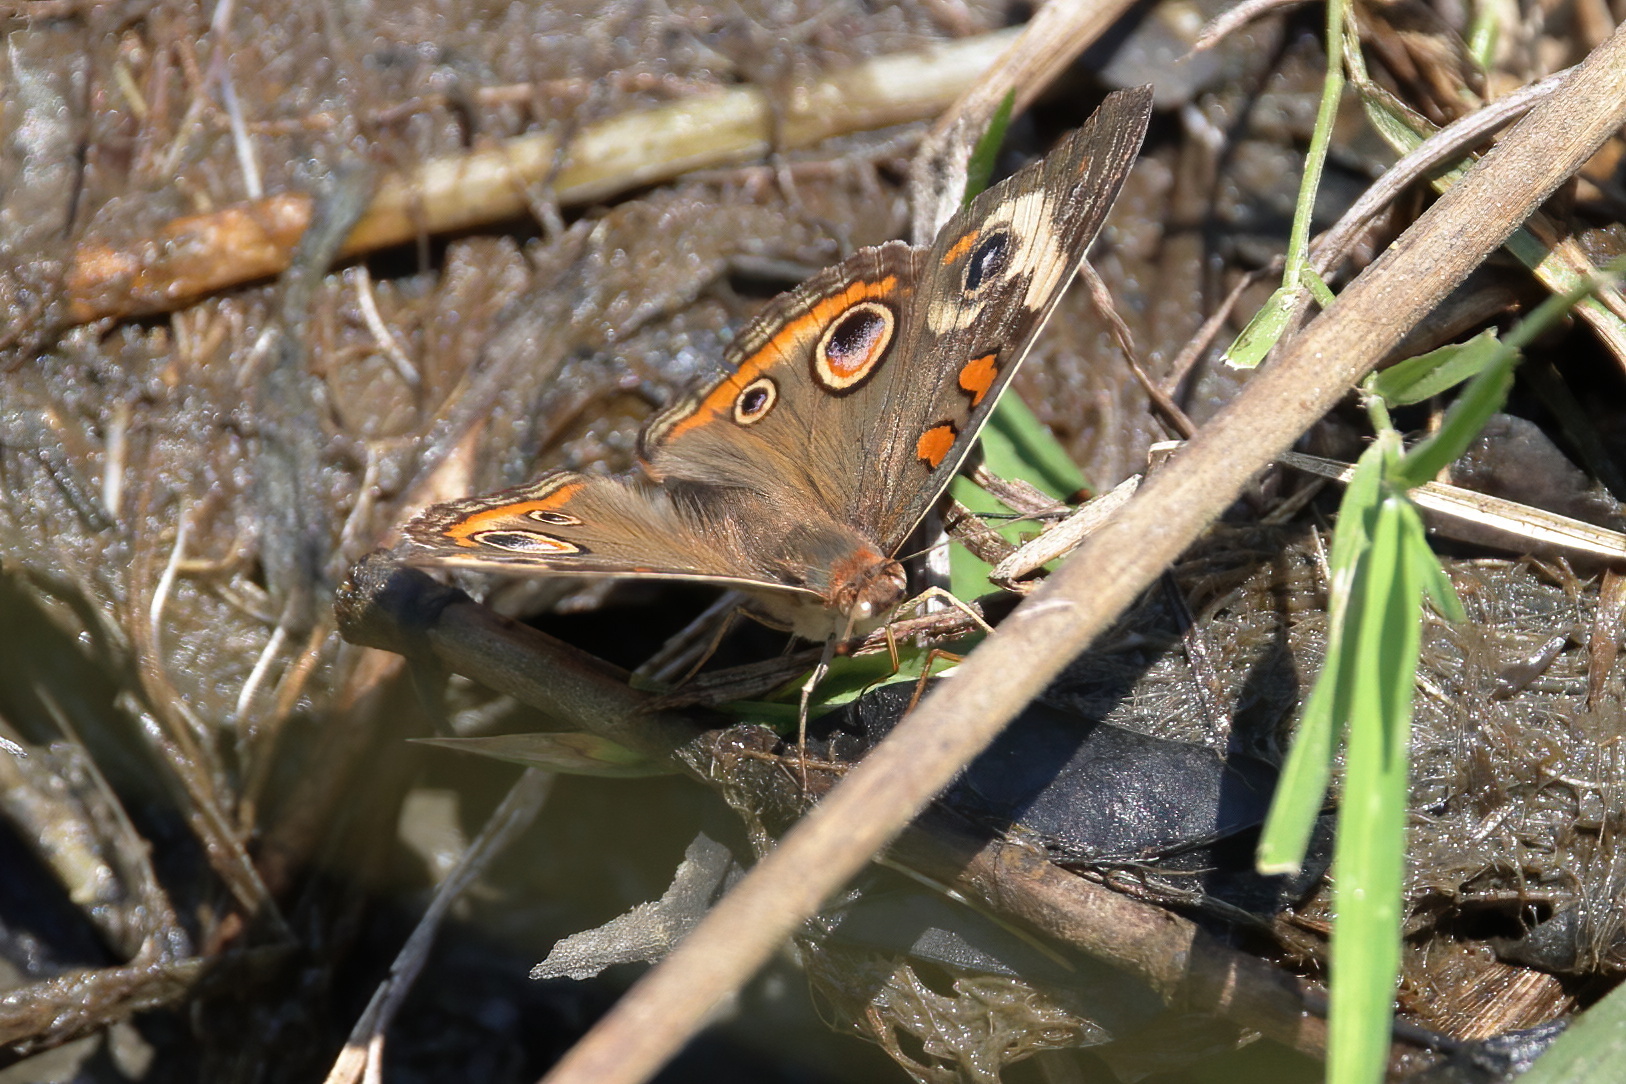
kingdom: Animalia
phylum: Arthropoda
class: Insecta
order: Lepidoptera
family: Nymphalidae
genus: Junonia
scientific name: Junonia coenia
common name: Common buckeye
